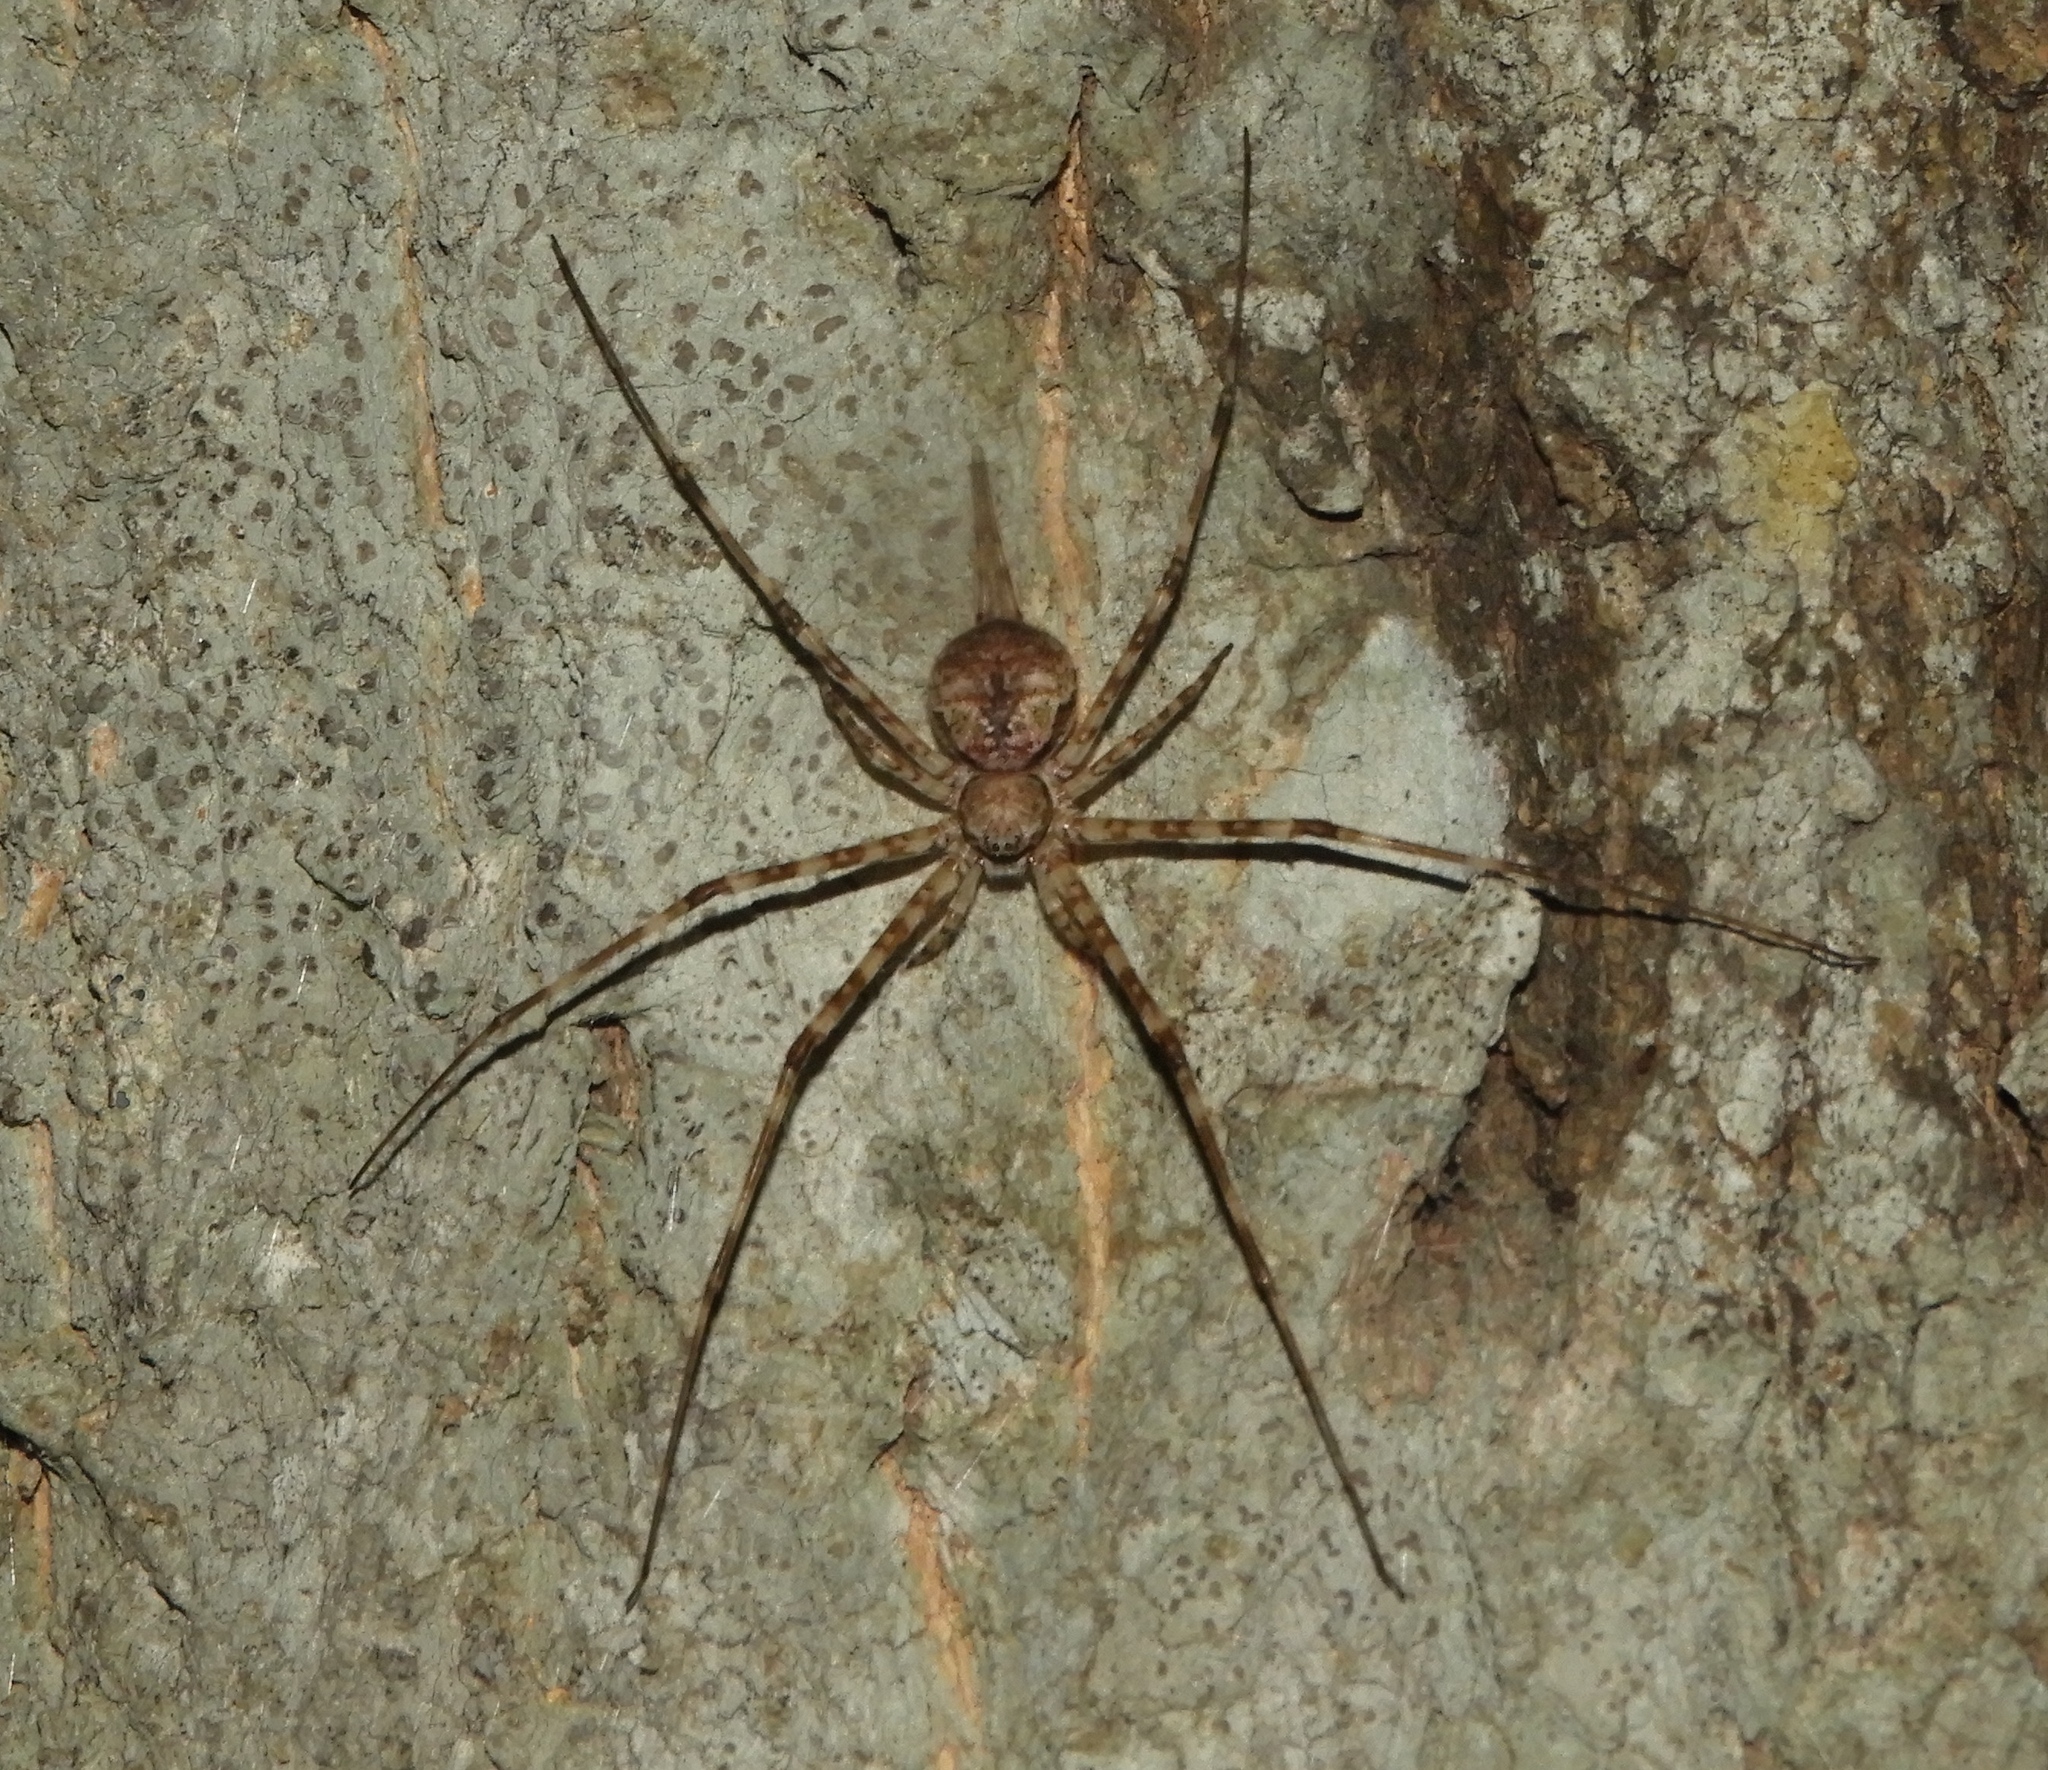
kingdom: Animalia
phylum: Arthropoda
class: Arachnida
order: Araneae
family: Hersiliidae
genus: Neotama
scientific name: Neotama mexicana
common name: Tree trunk spiders
